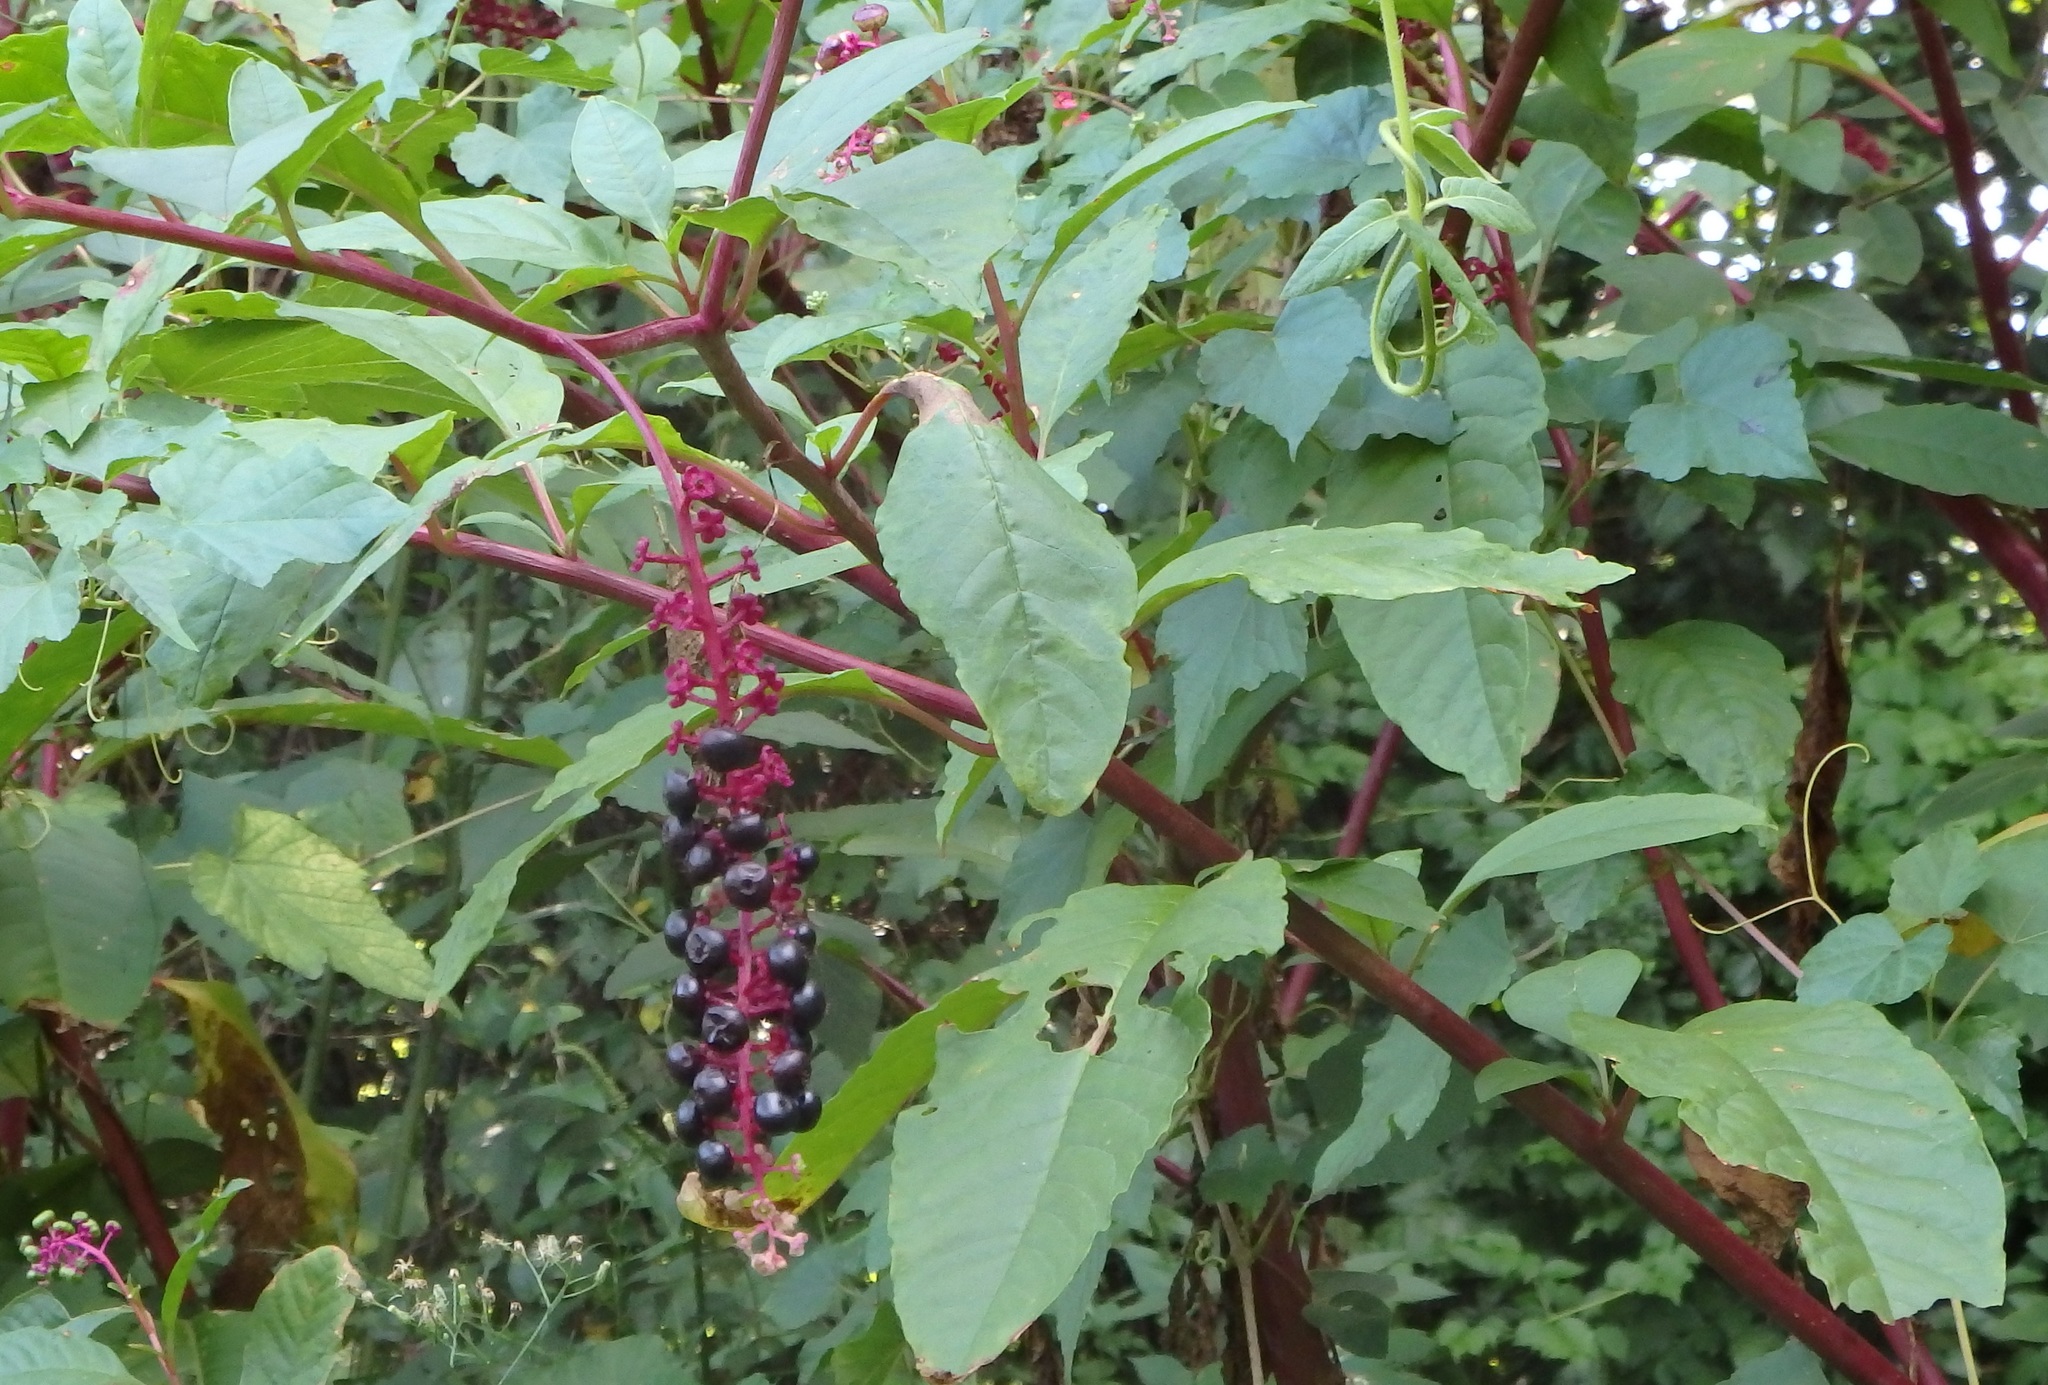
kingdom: Plantae
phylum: Tracheophyta
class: Magnoliopsida
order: Caryophyllales
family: Phytolaccaceae
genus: Phytolacca
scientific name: Phytolacca americana
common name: American pokeweed
